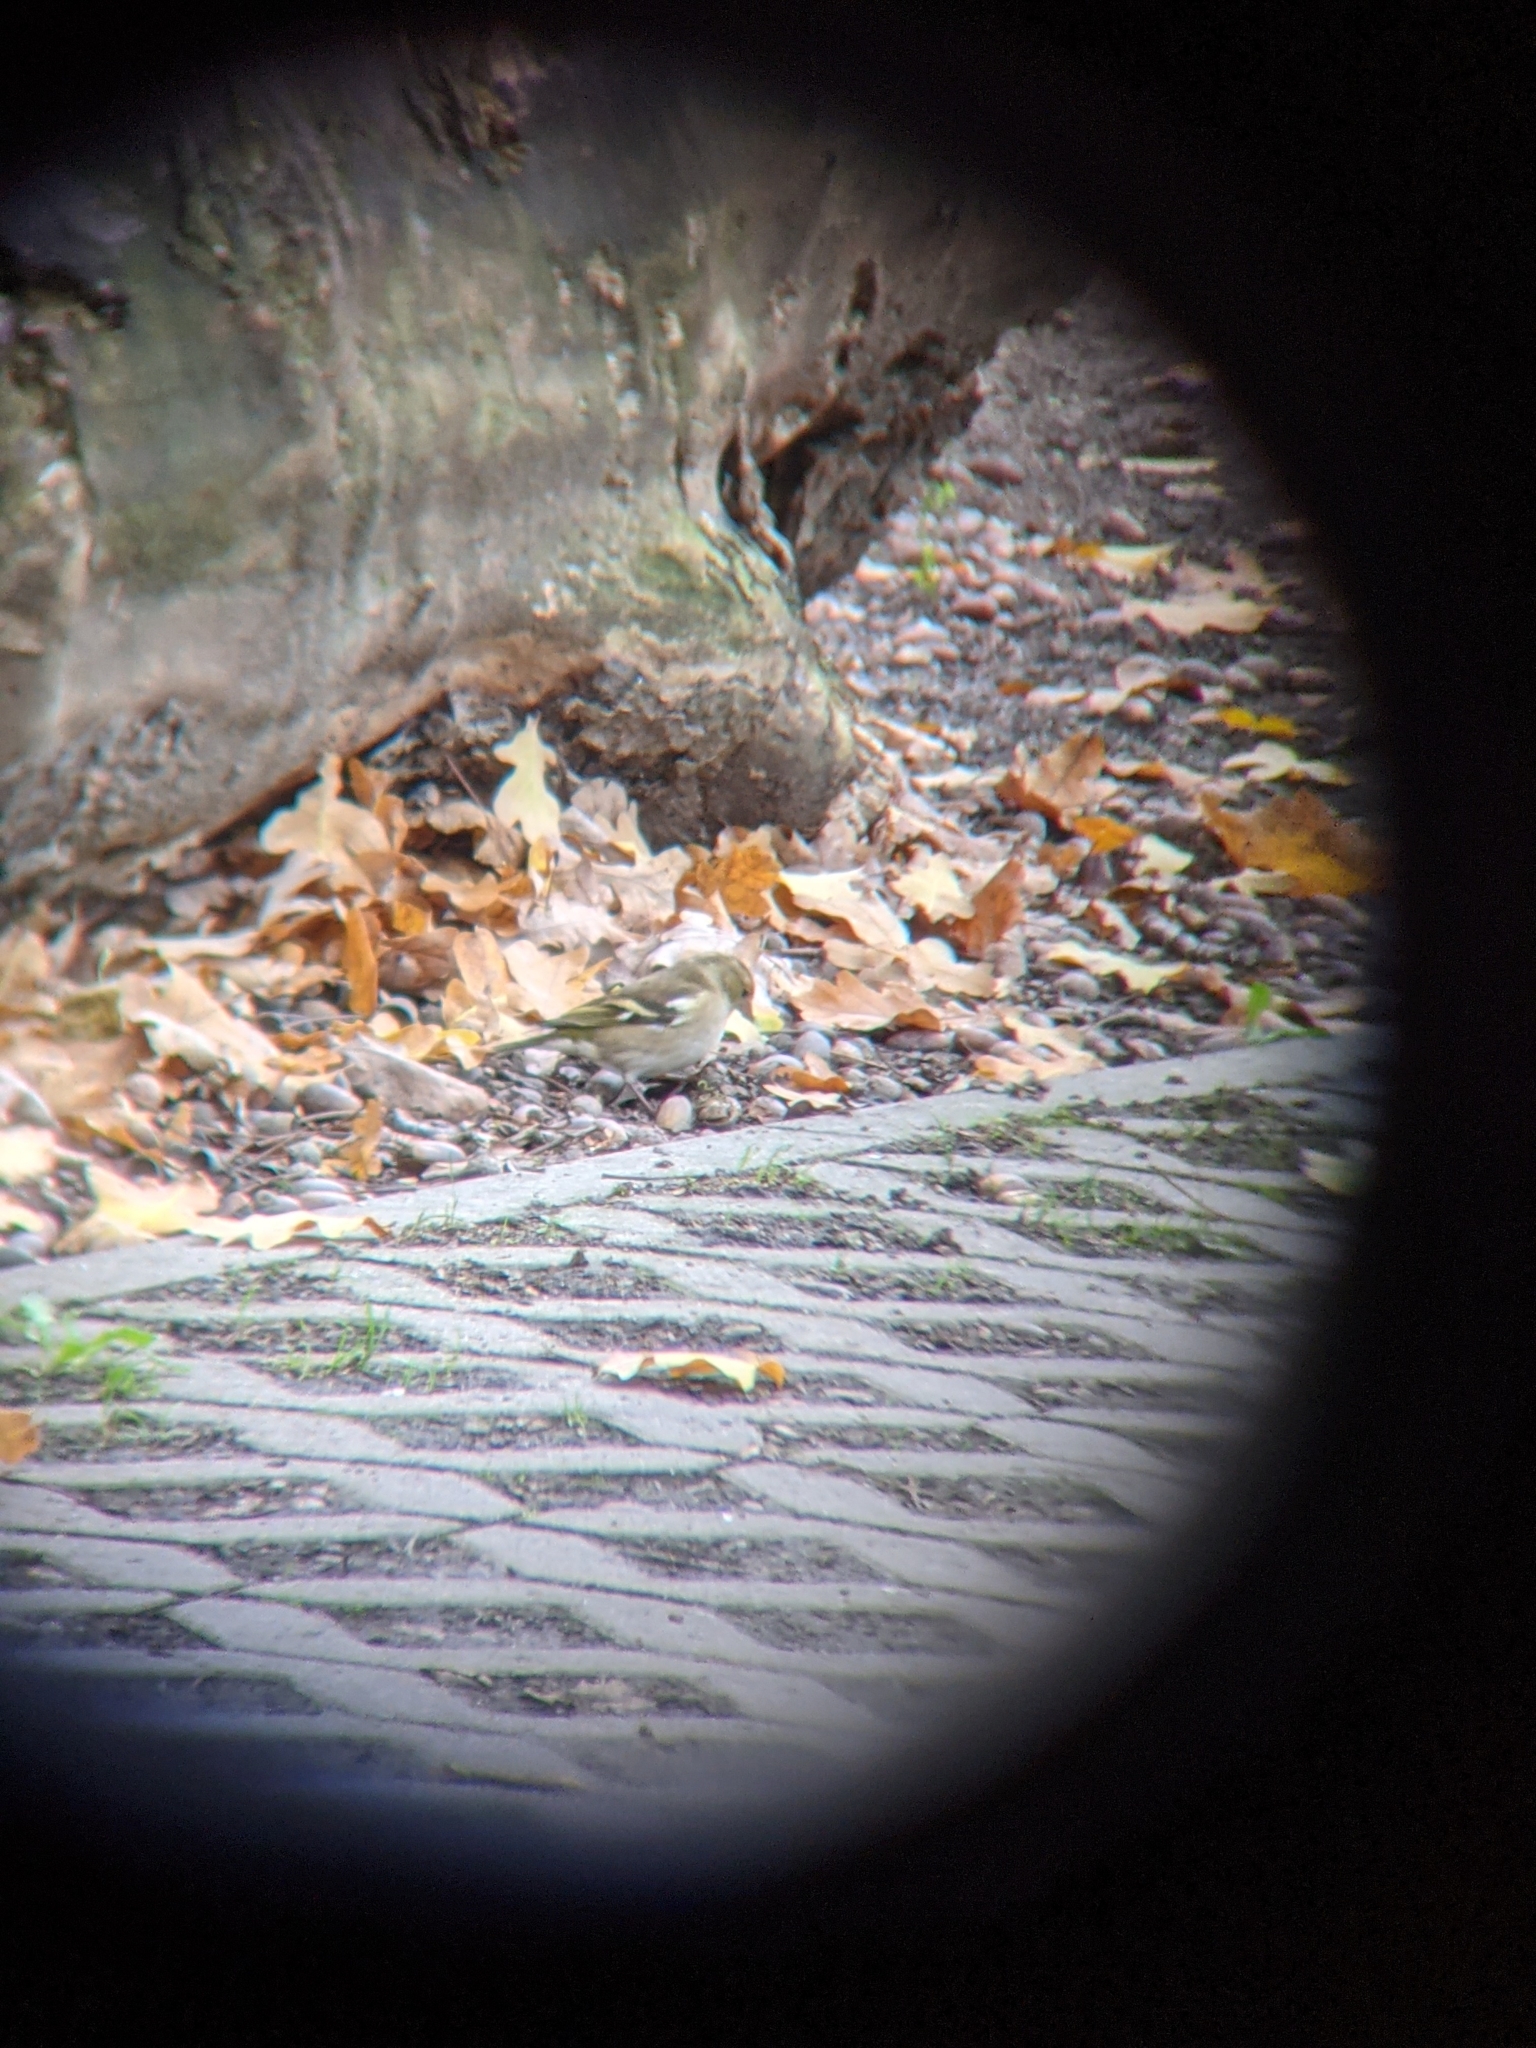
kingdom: Animalia
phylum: Chordata
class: Aves
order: Passeriformes
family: Fringillidae
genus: Fringilla
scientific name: Fringilla coelebs
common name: Common chaffinch
